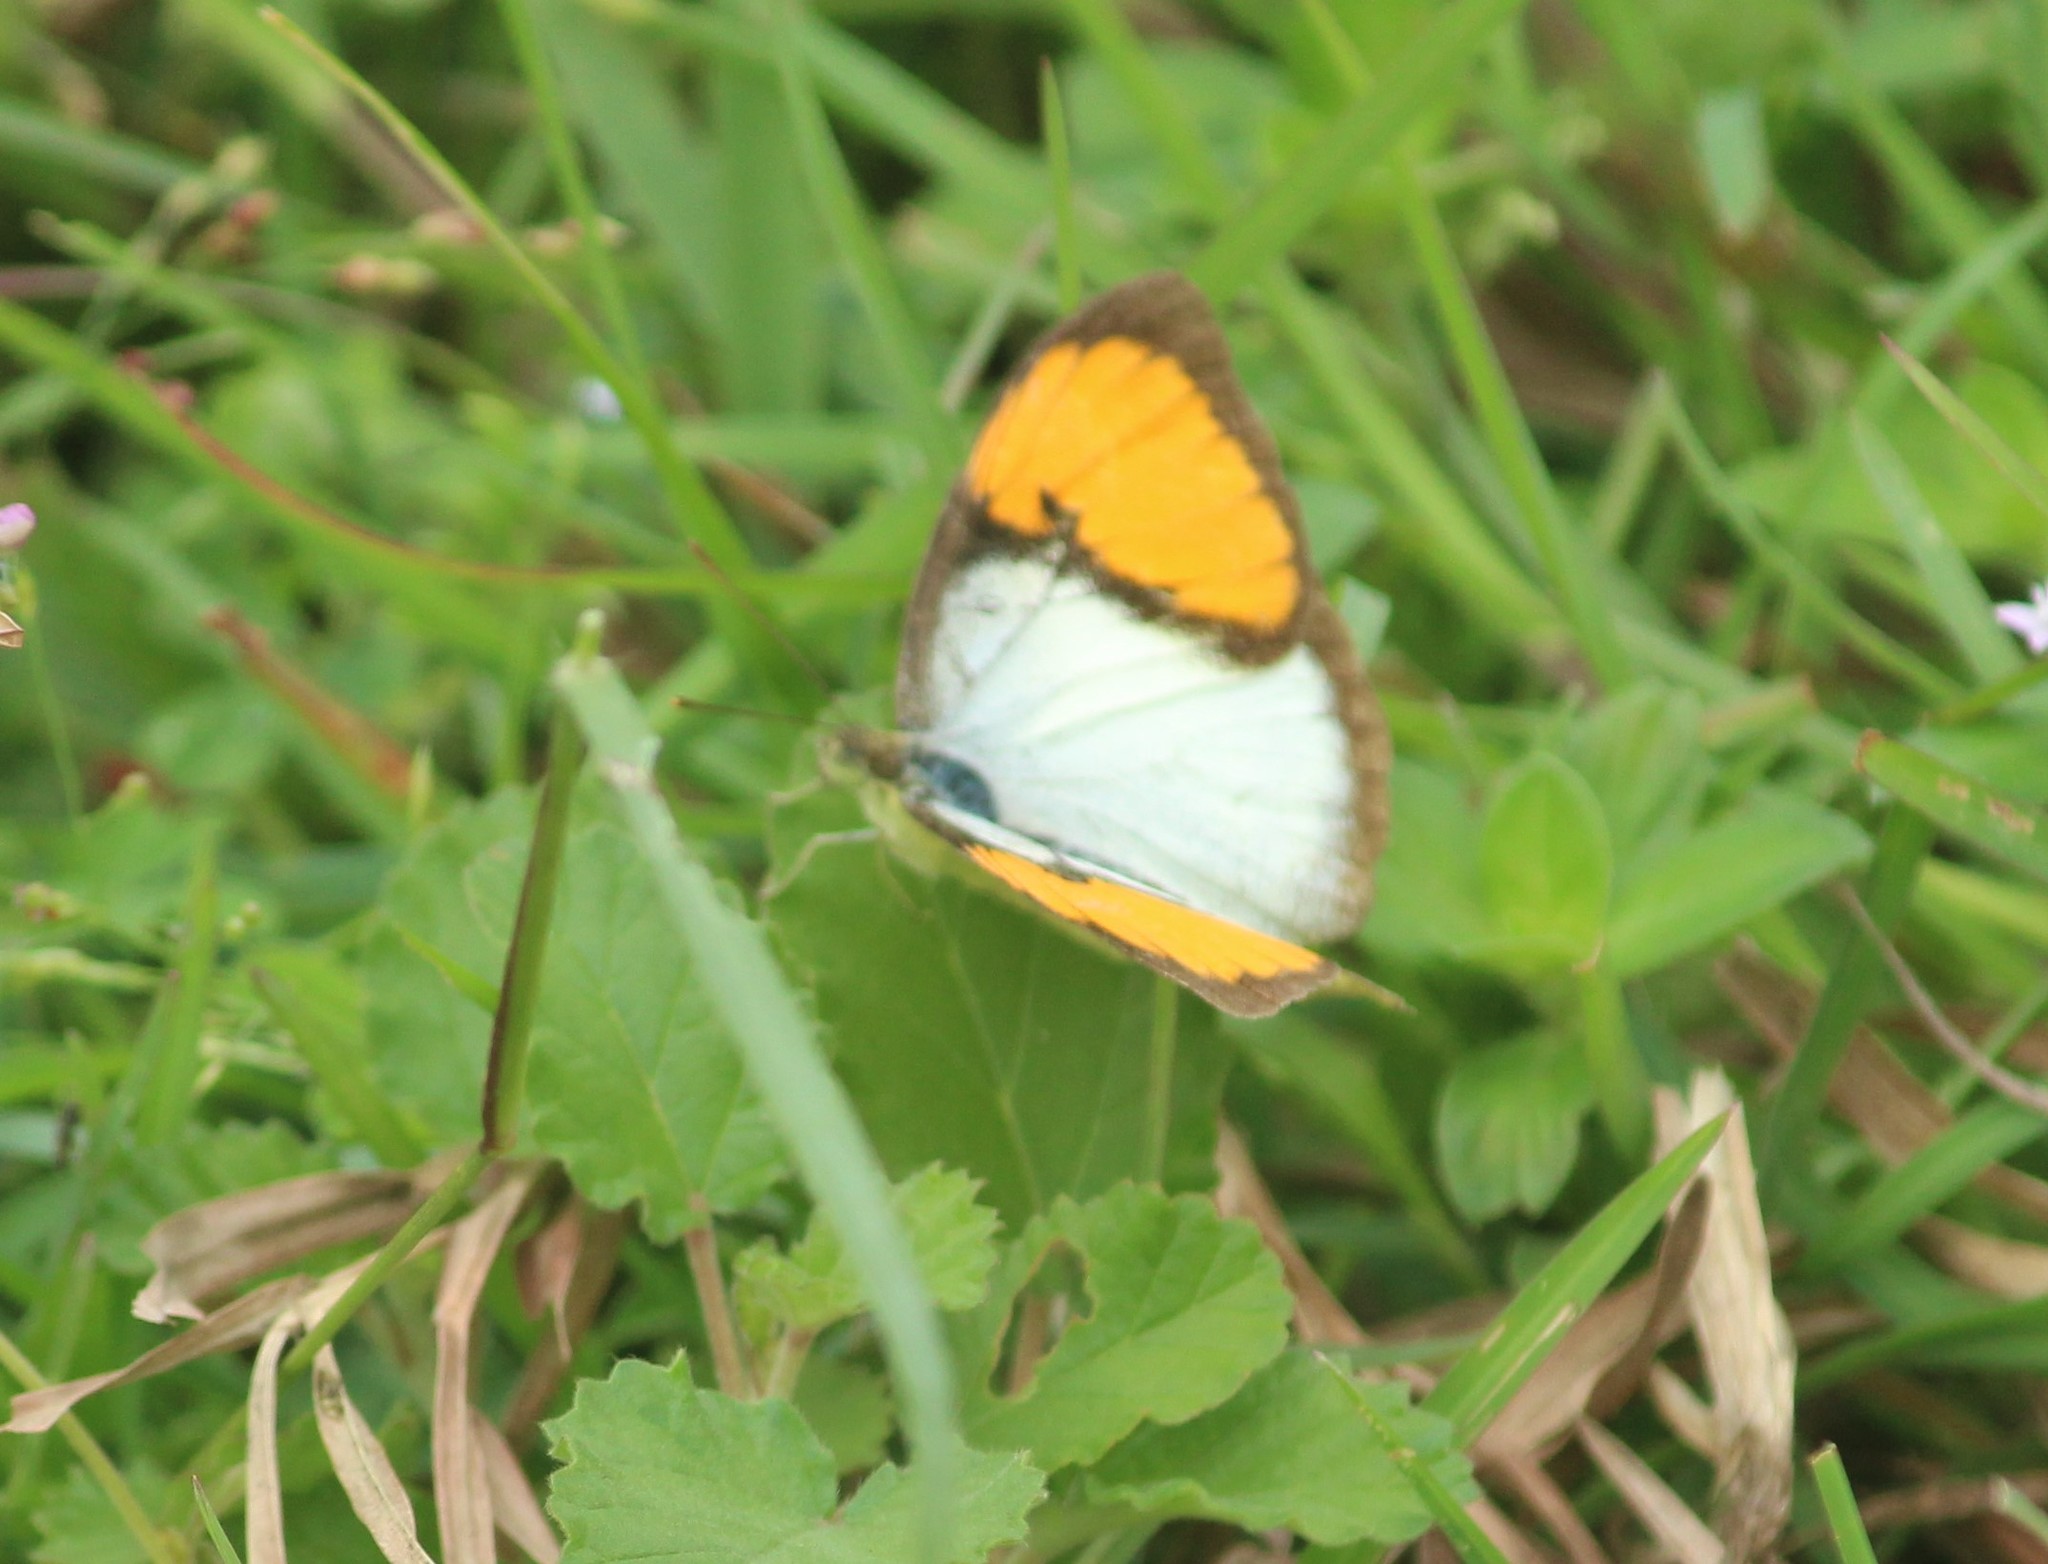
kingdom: Animalia
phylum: Arthropoda
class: Insecta
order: Lepidoptera
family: Pieridae
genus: Ixias
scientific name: Ixias marianne
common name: White orange tip
